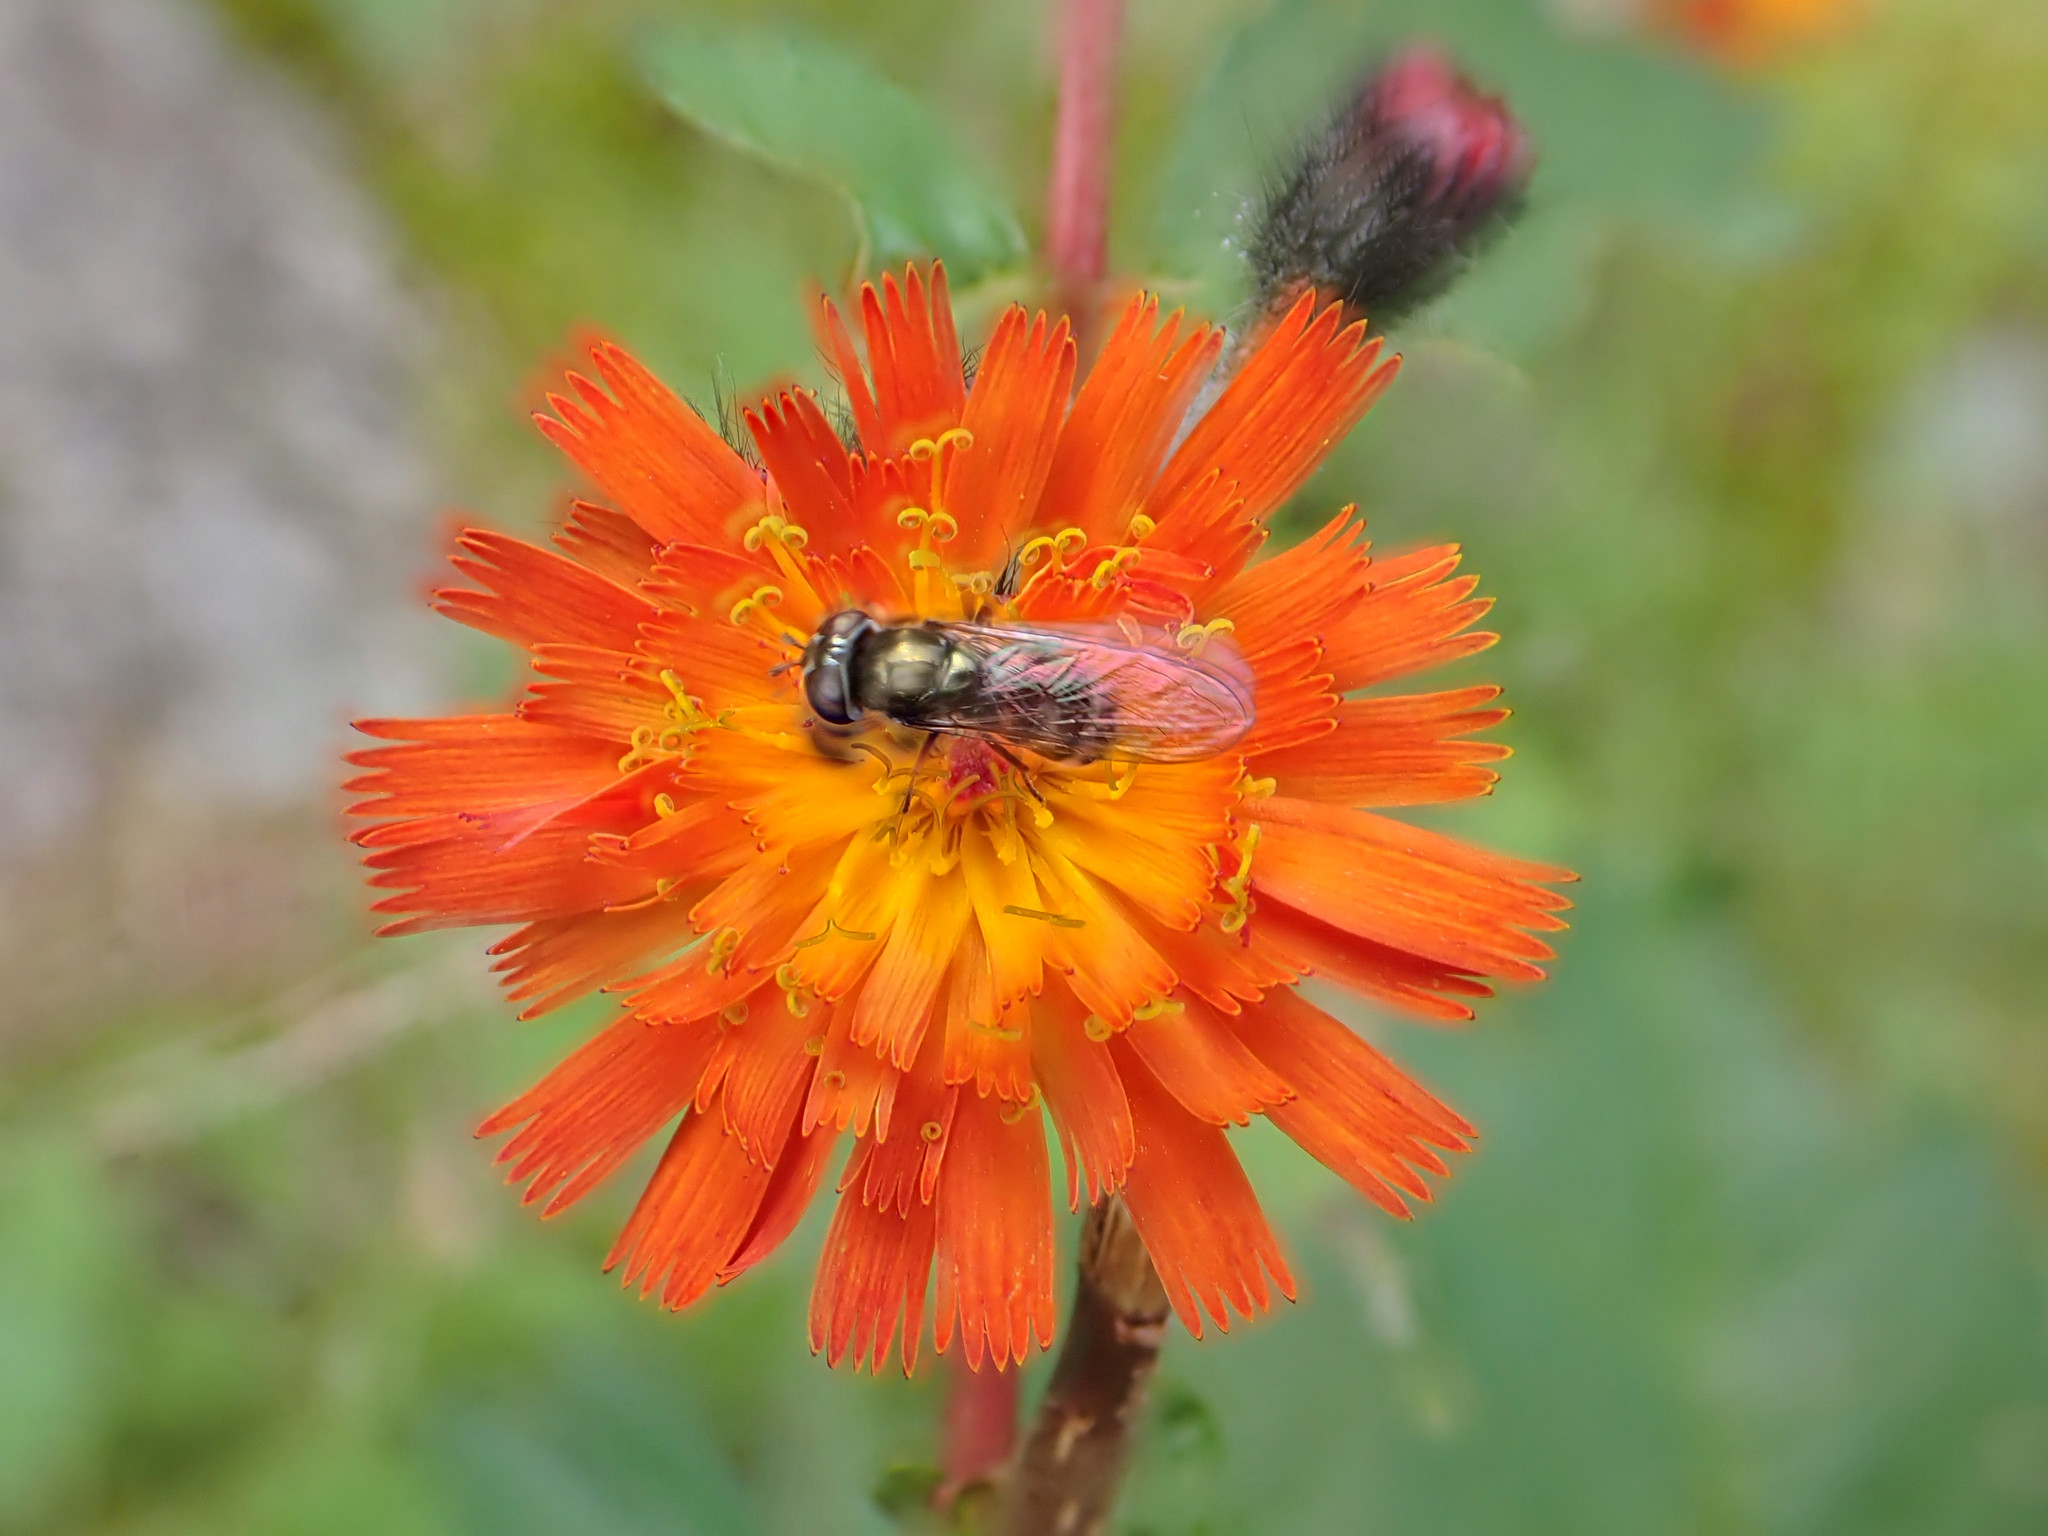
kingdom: Plantae
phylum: Tracheophyta
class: Magnoliopsida
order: Asterales
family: Asteraceae
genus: Pilosella
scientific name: Pilosella aurantiaca
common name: Fox-and-cubs
